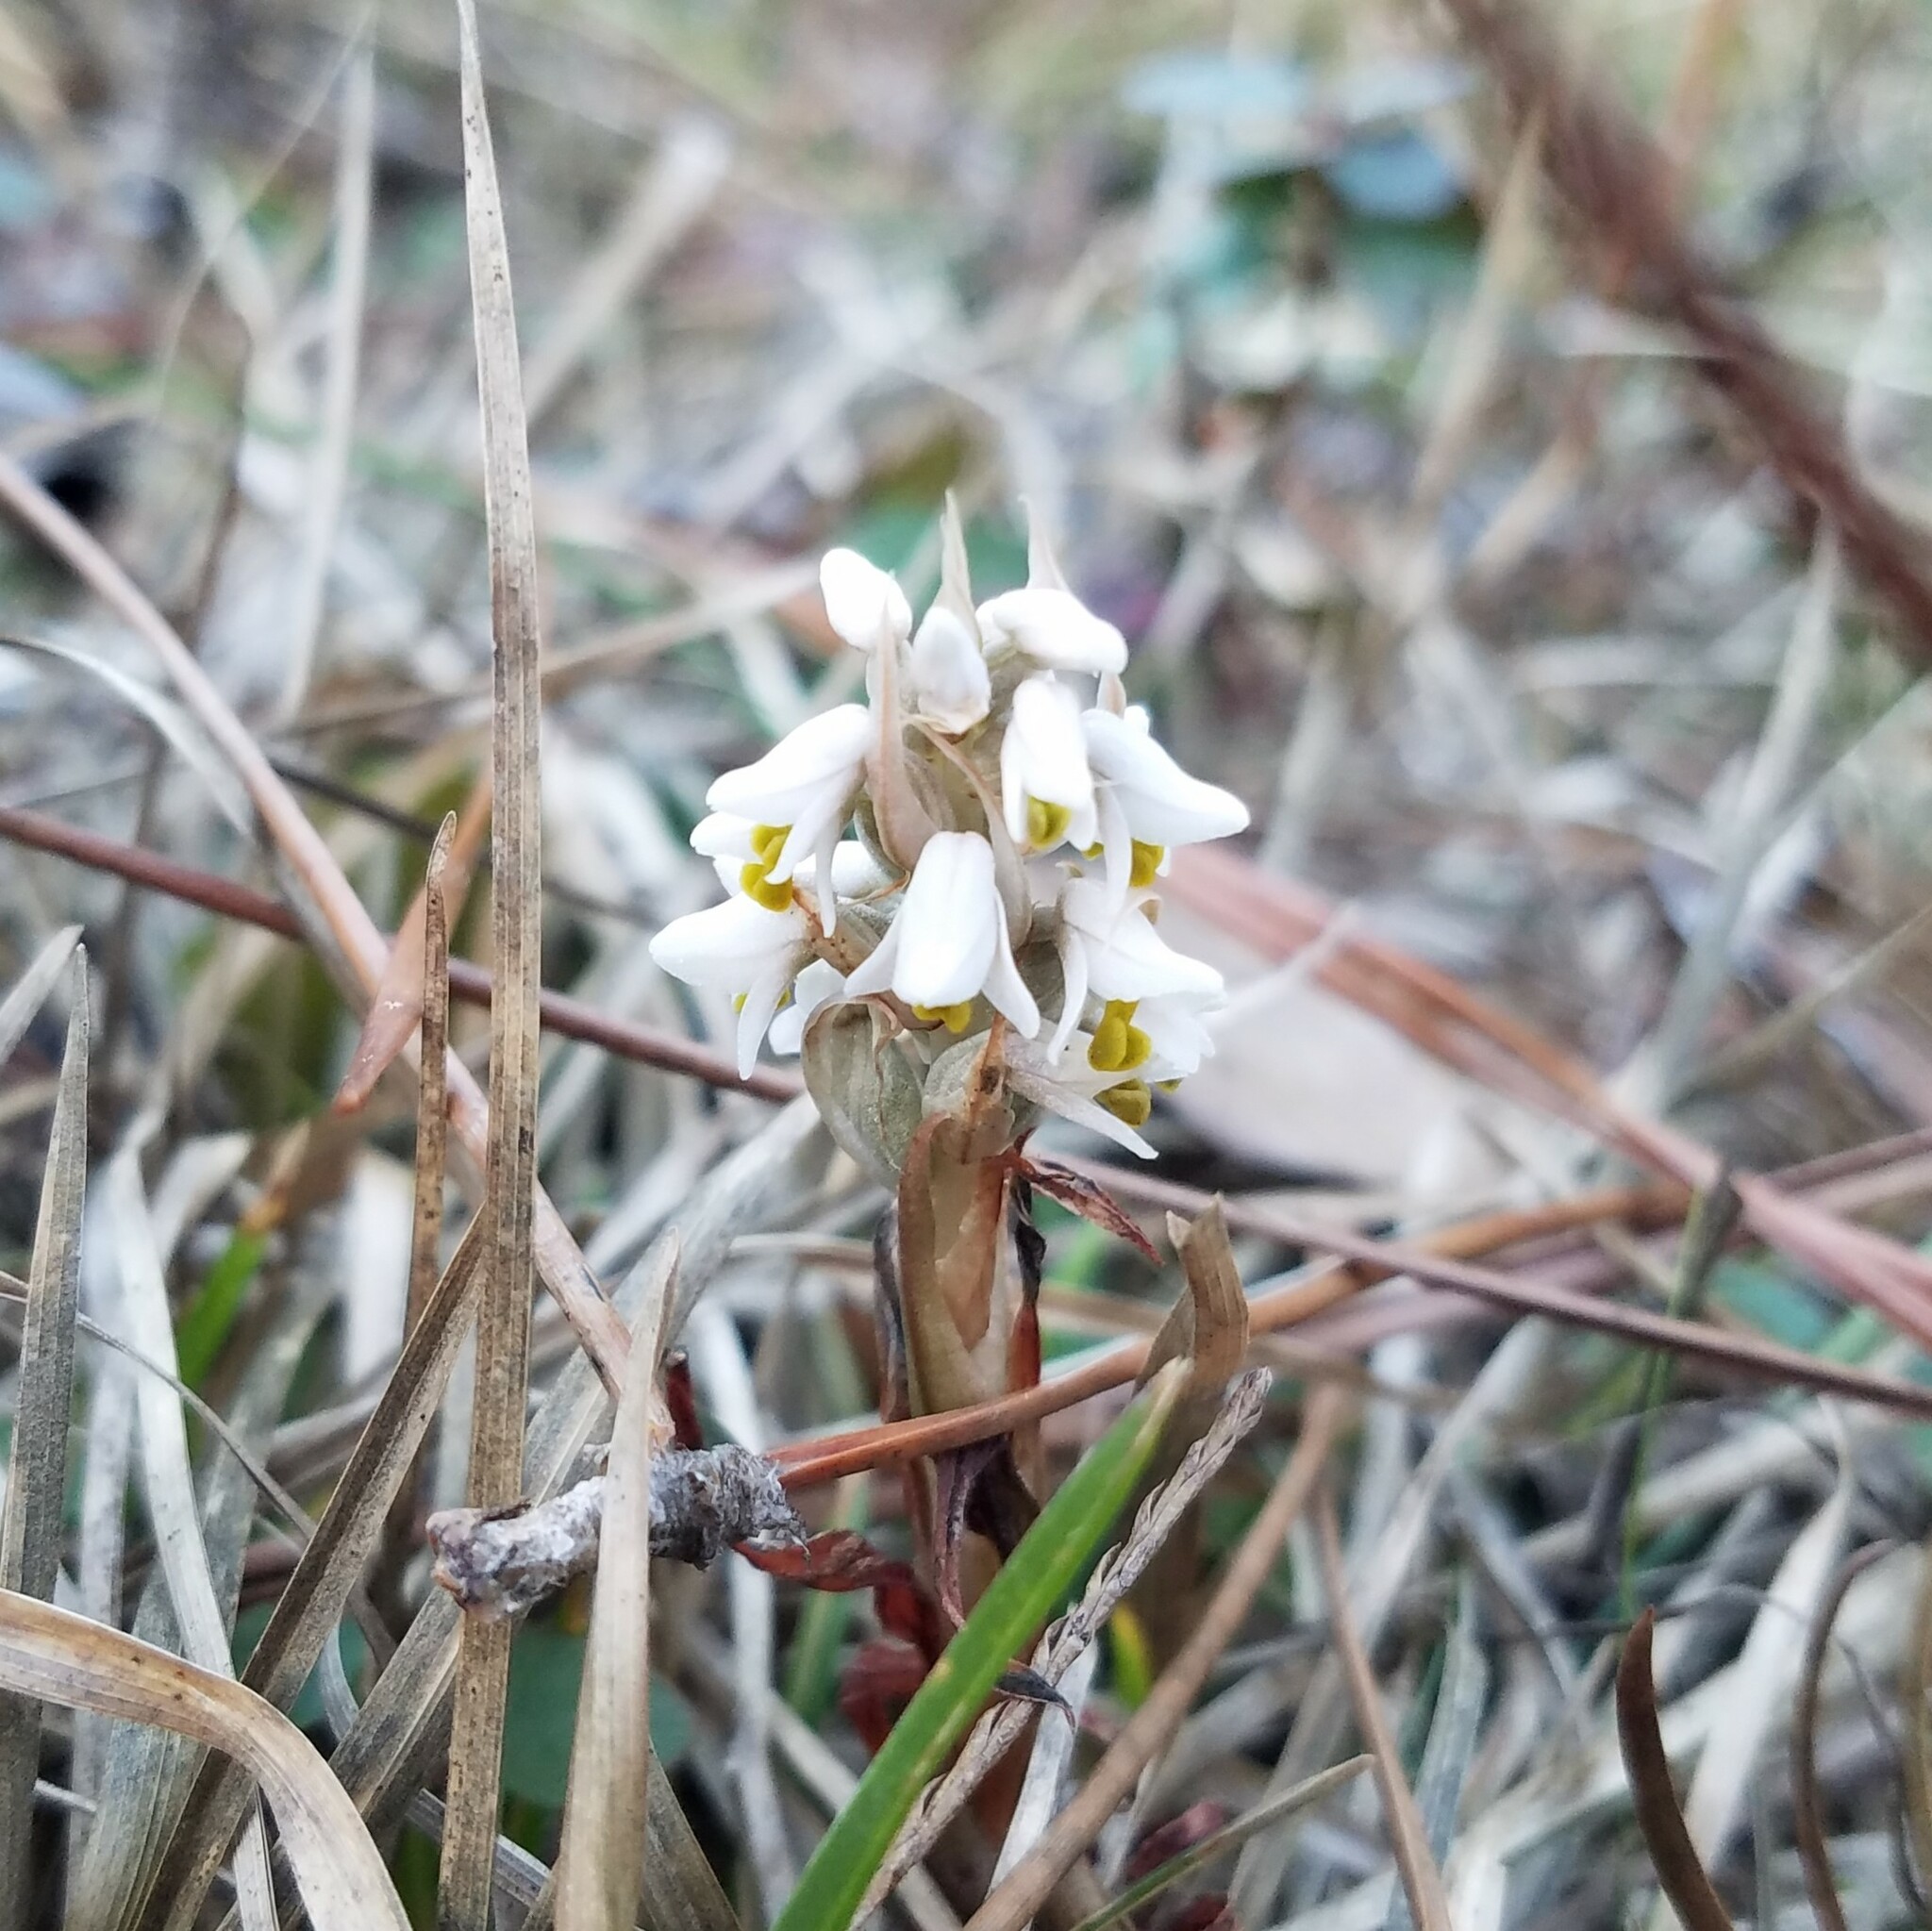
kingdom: Plantae
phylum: Tracheophyta
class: Liliopsida
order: Asparagales
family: Orchidaceae
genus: Zeuxine
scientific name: Zeuxine strateumatica
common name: Soldier's orchid
